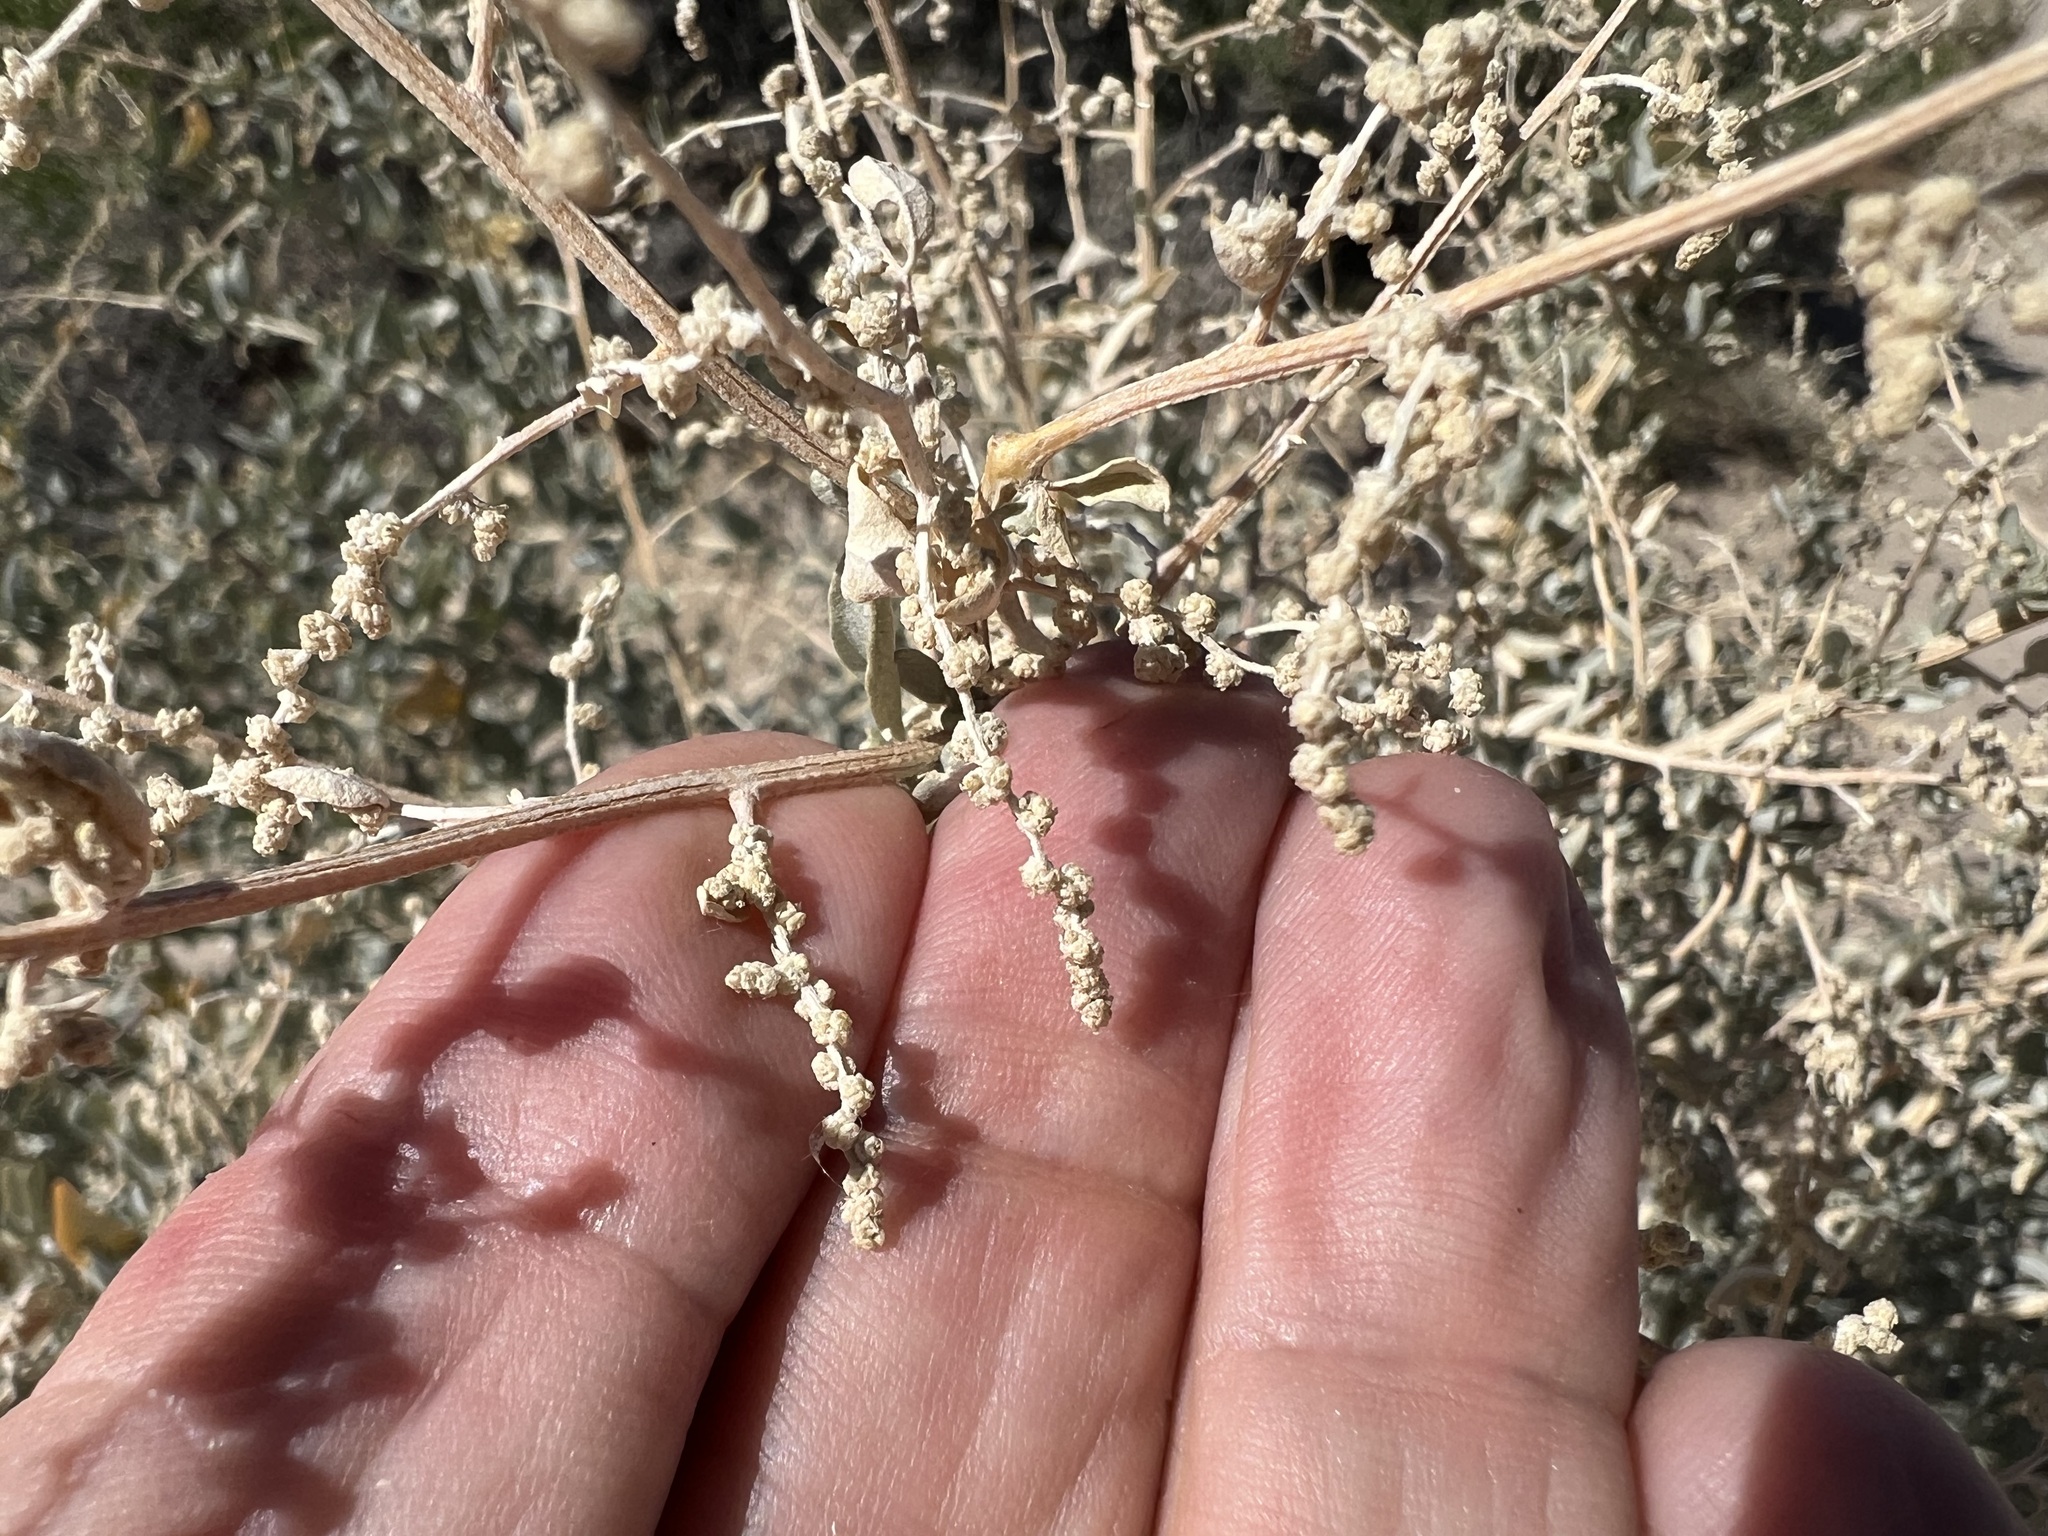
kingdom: Plantae
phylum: Tracheophyta
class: Magnoliopsida
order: Caryophyllales
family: Amaranthaceae
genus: Atriplex
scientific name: Atriplex torreyi
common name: Torrey's saltbush
